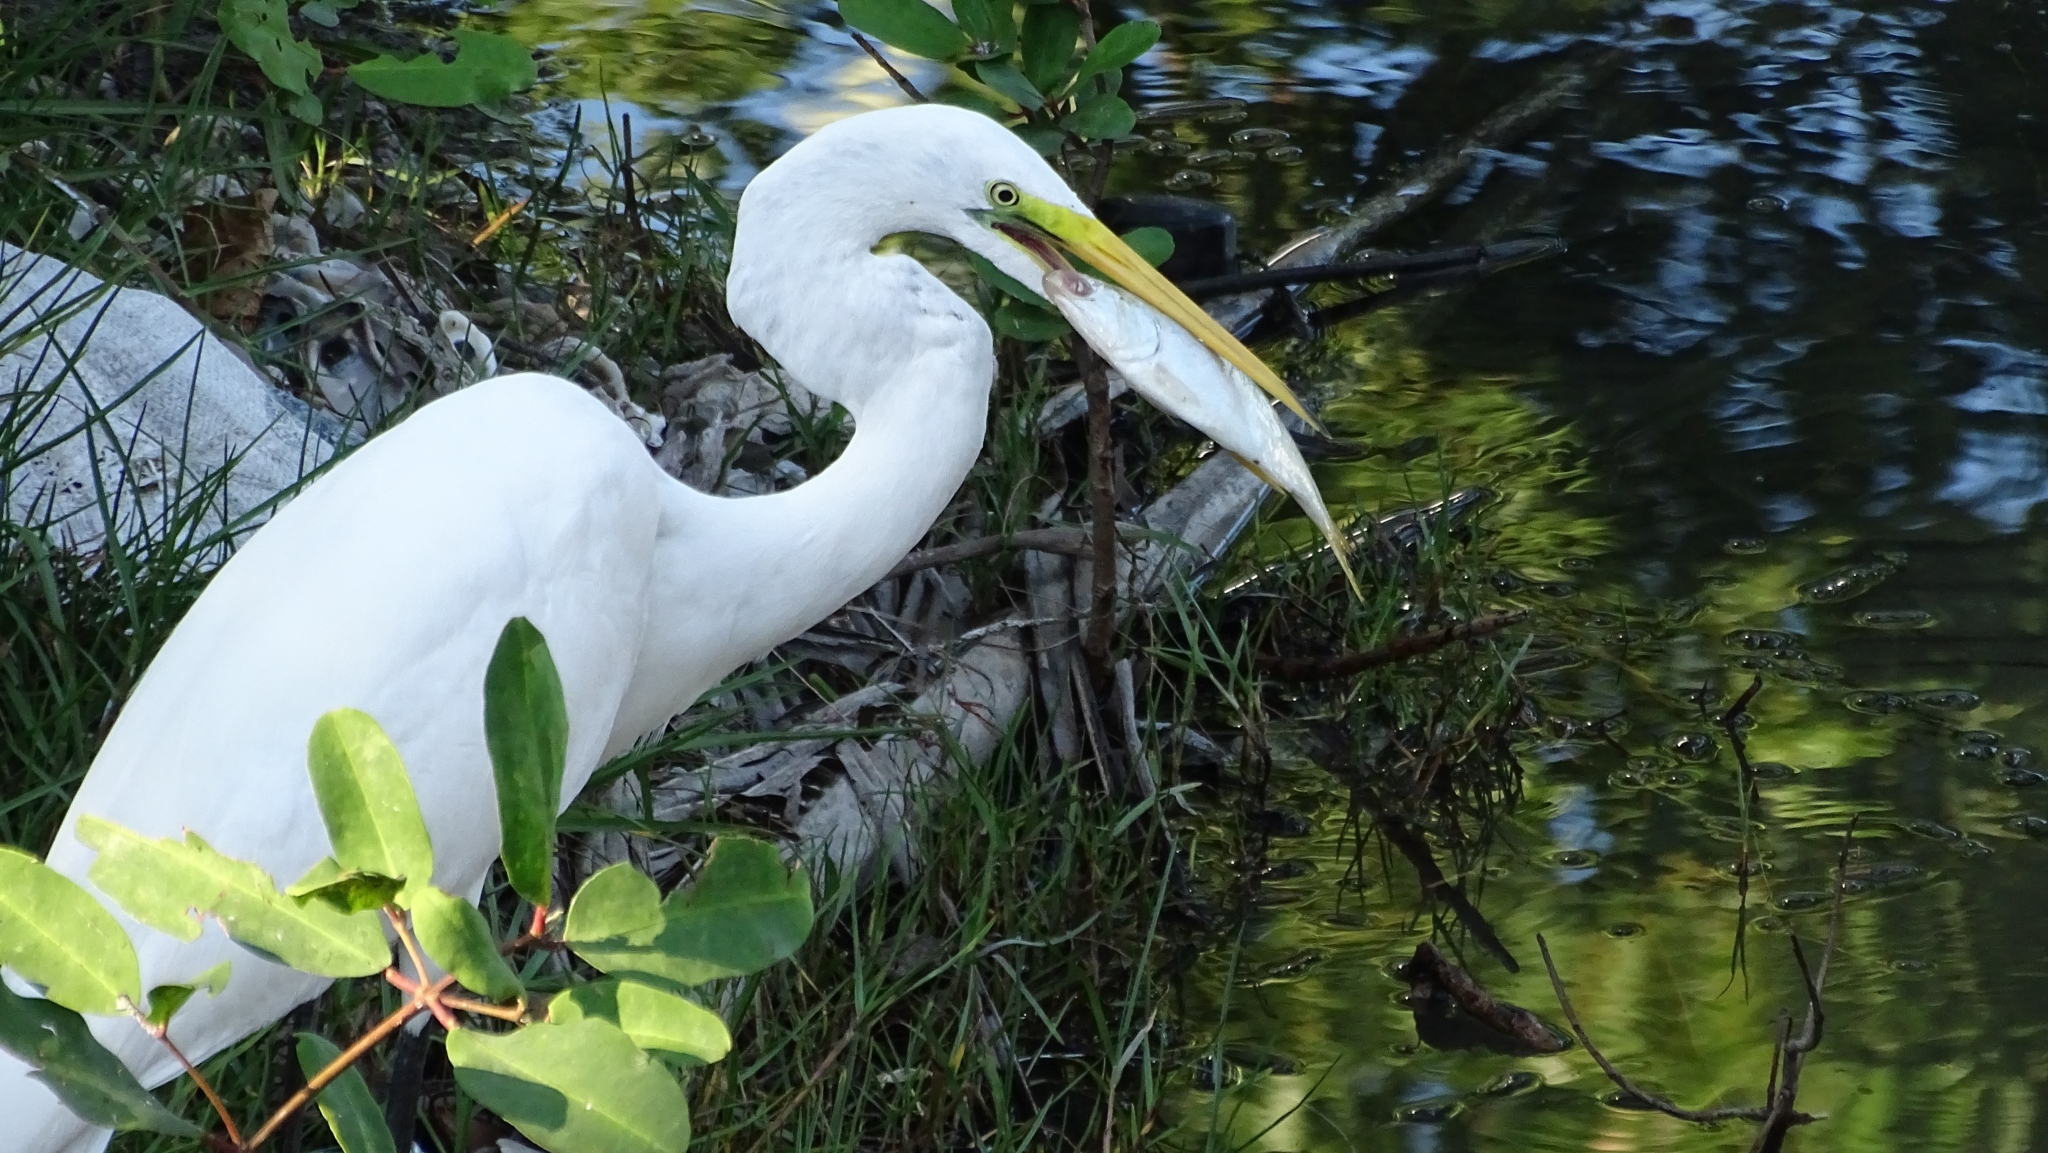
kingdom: Animalia
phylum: Chordata
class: Aves
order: Pelecaniformes
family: Ardeidae
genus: Ardea
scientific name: Ardea alba
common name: Great egret
